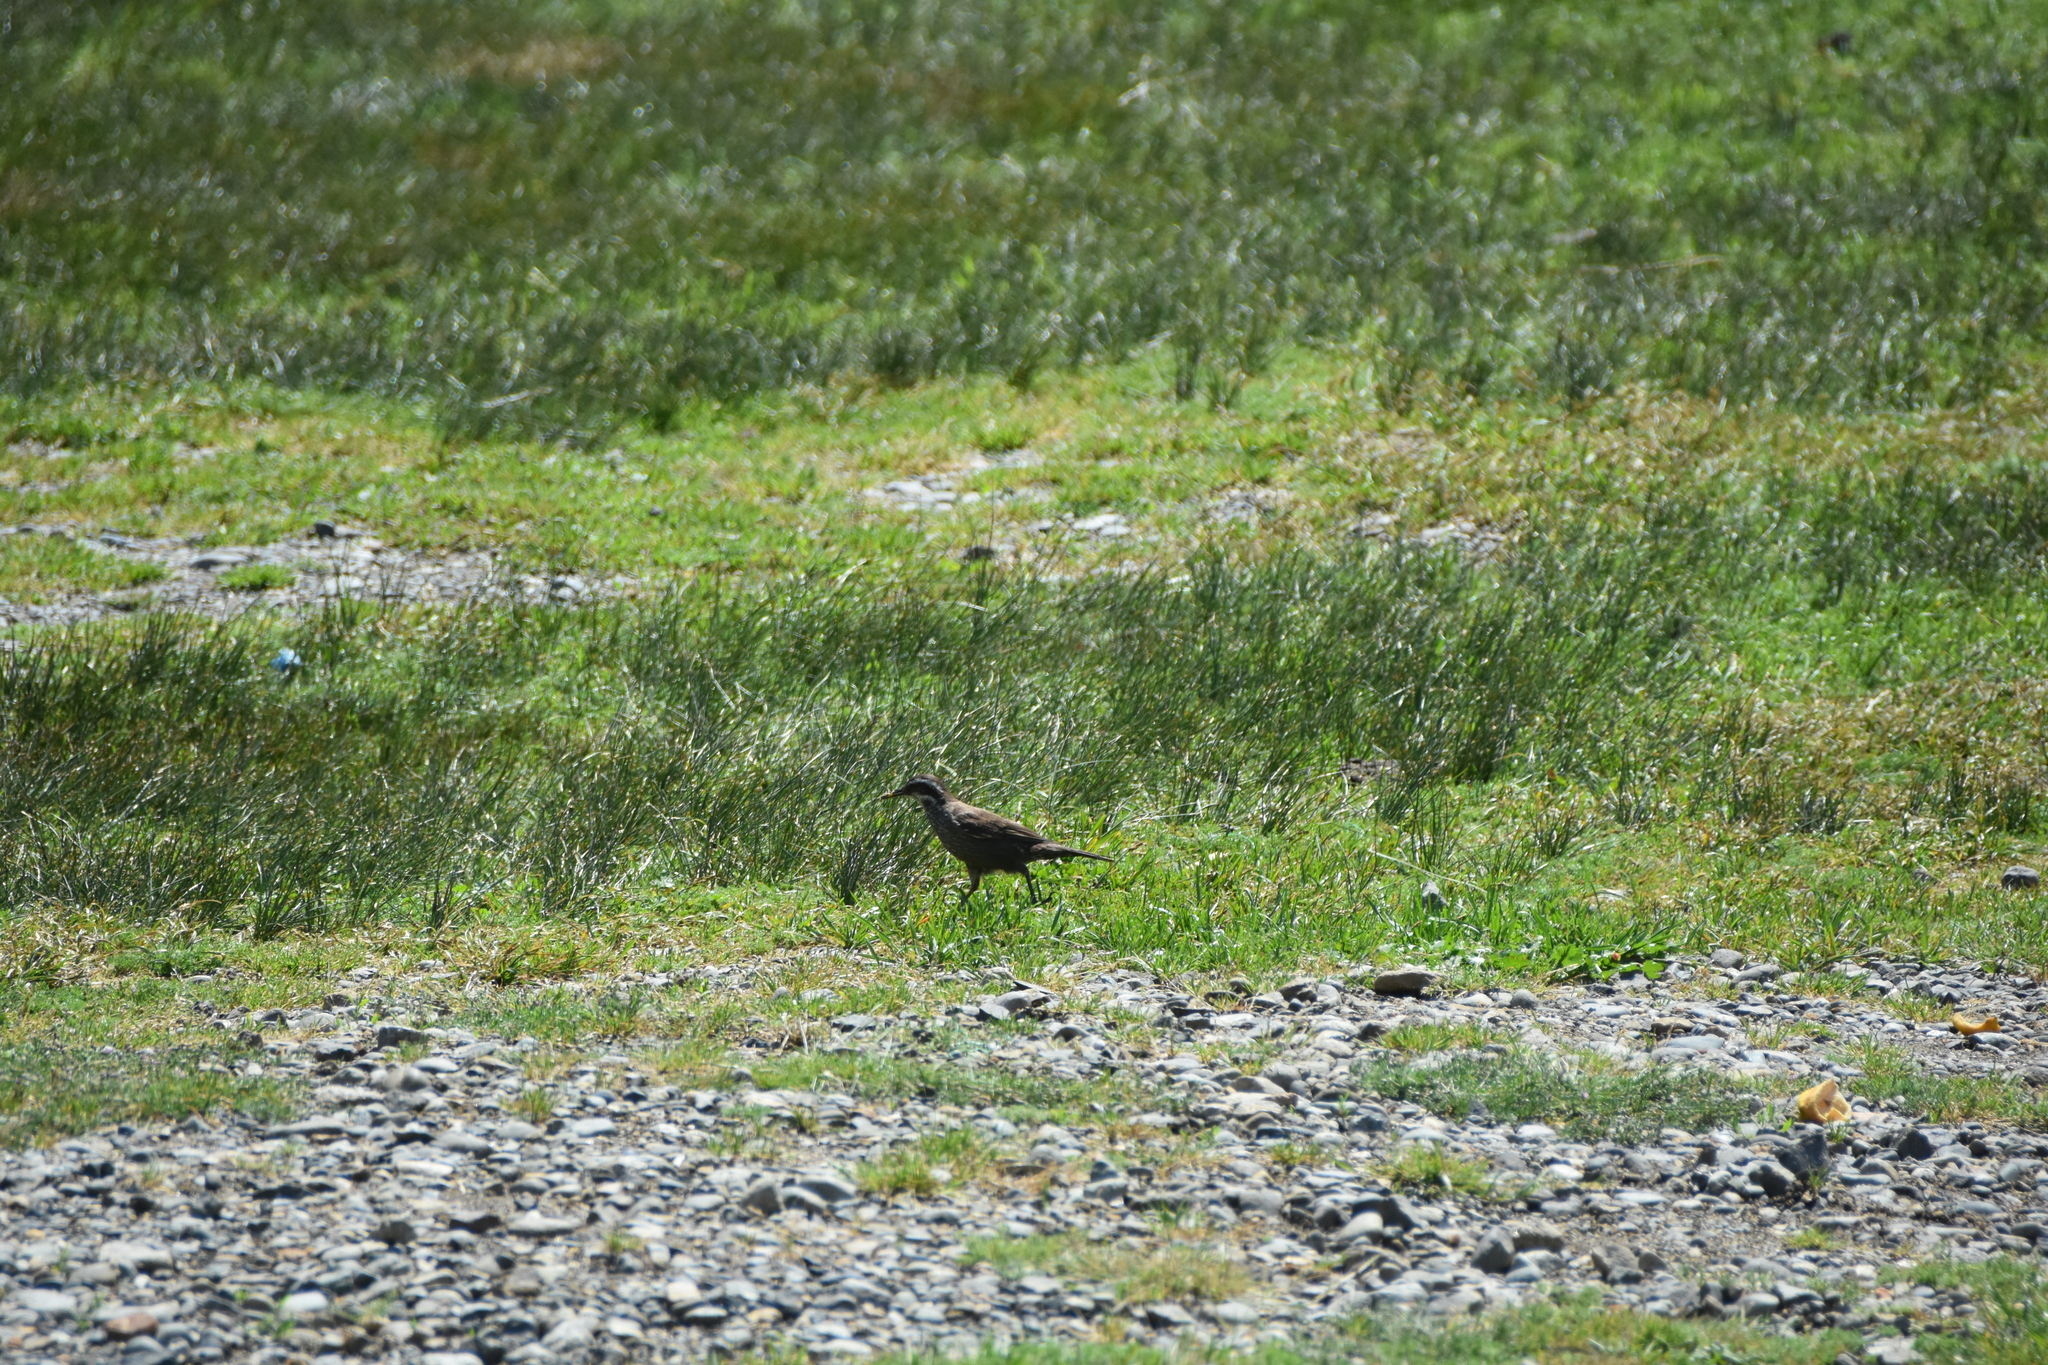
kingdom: Animalia
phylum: Chordata
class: Aves
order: Passeriformes
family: Furnariidae
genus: Cinclodes
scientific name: Cinclodes patagonicus
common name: Dark-bellied cinclodes
